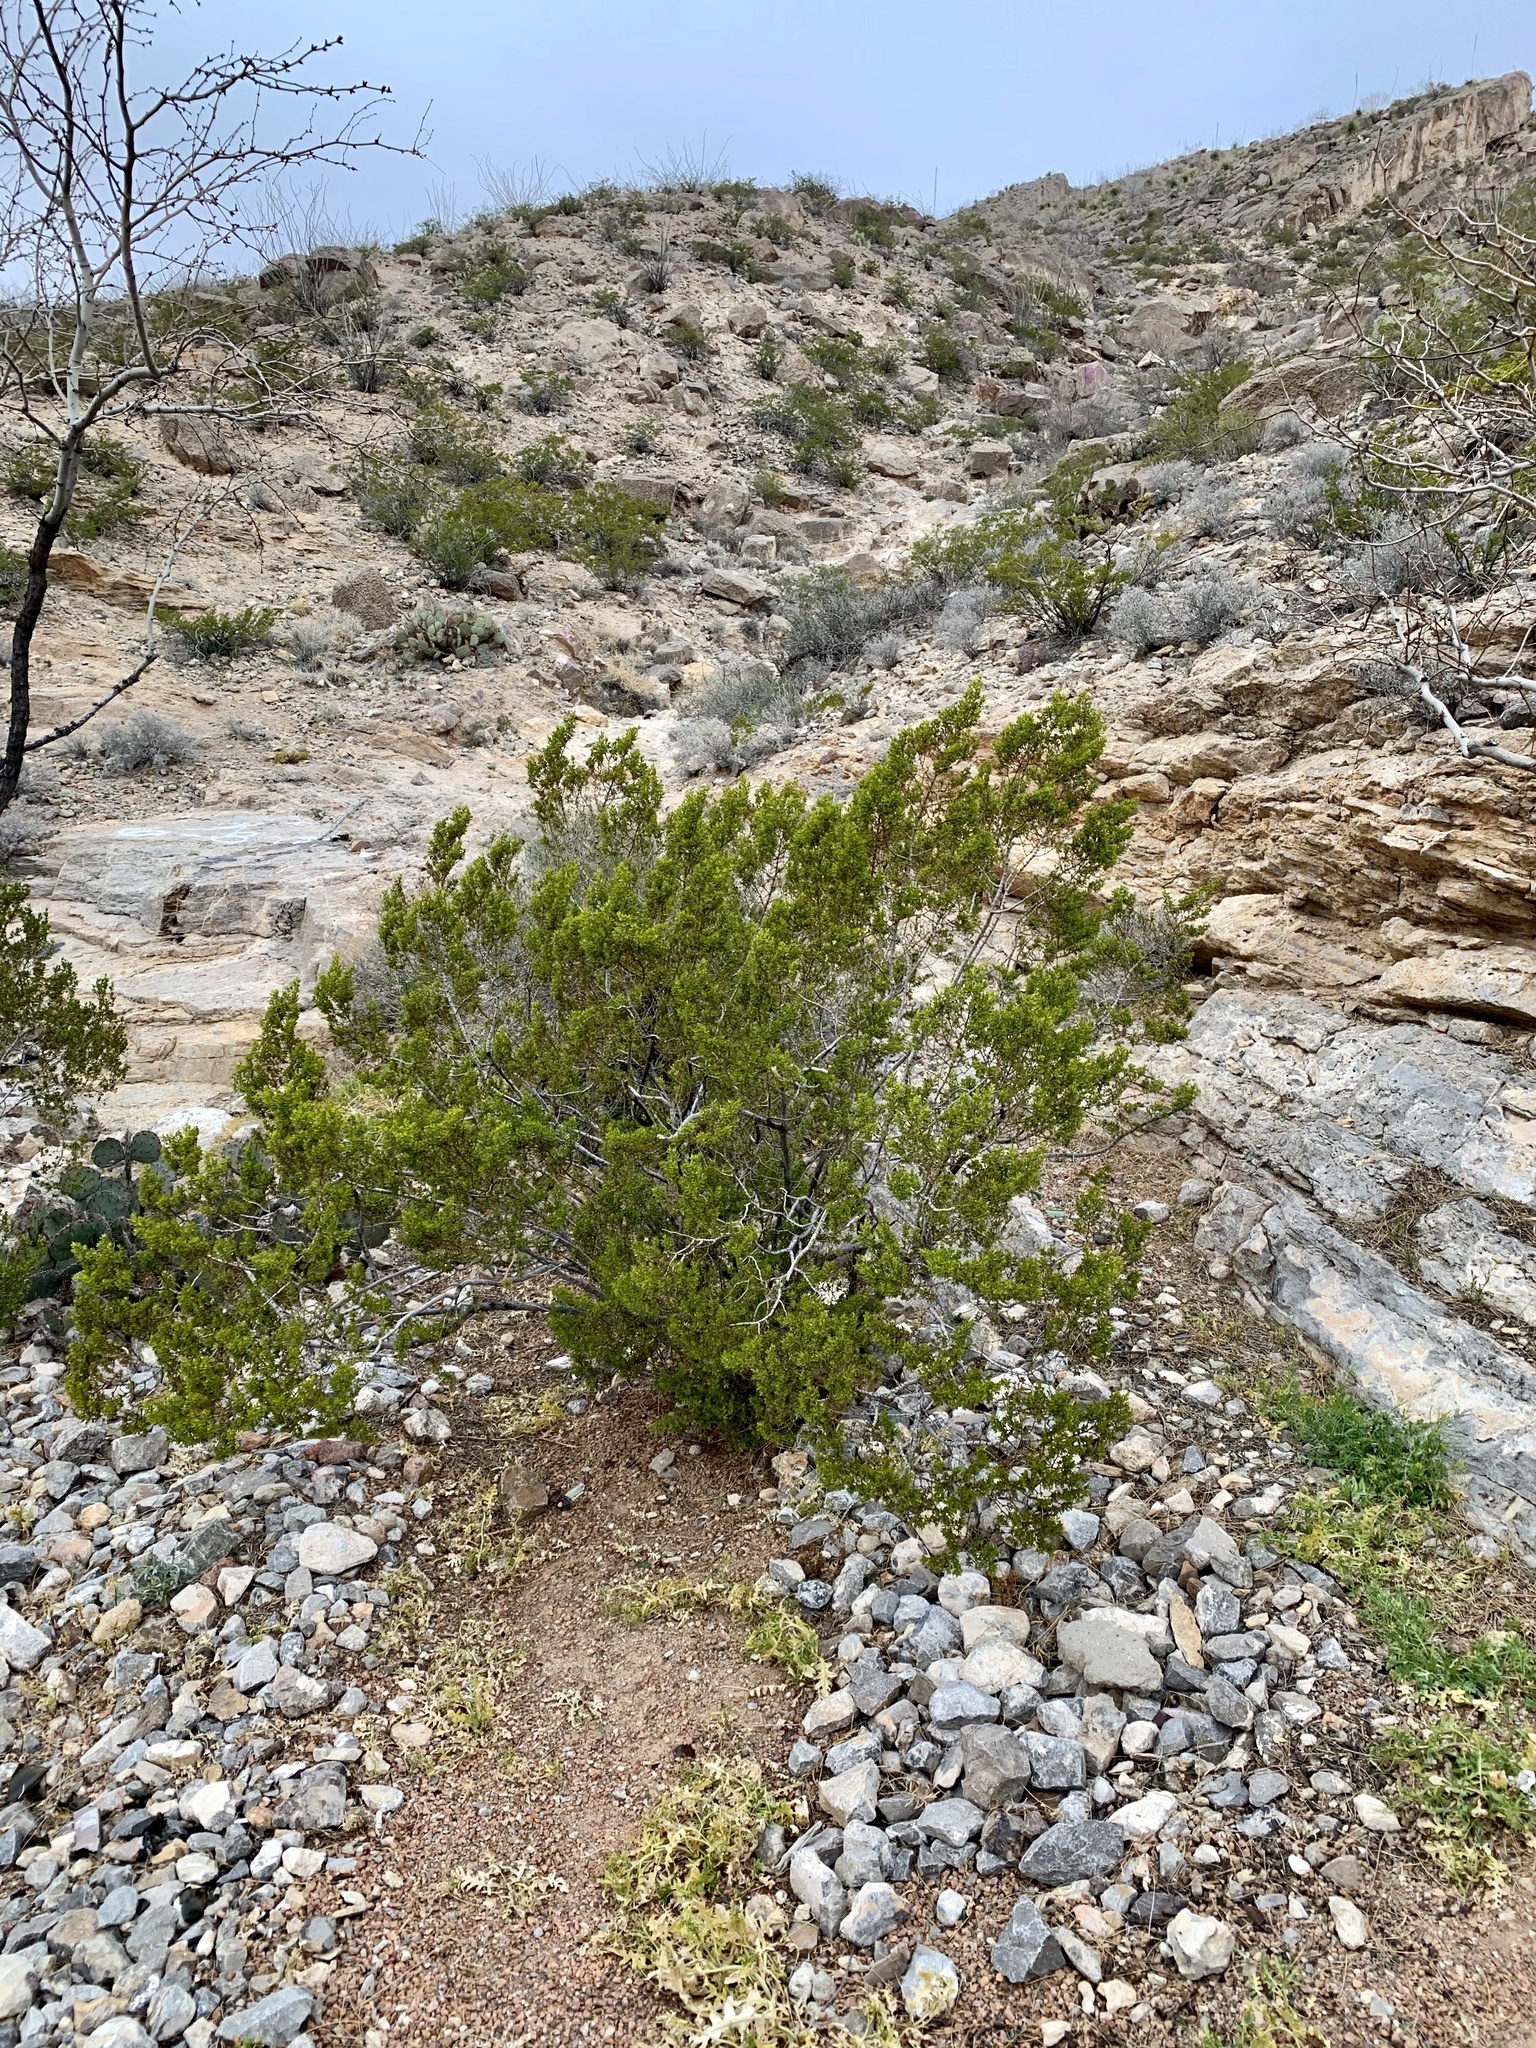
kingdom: Plantae
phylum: Tracheophyta
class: Magnoliopsida
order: Zygophyllales
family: Zygophyllaceae
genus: Larrea
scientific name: Larrea tridentata
